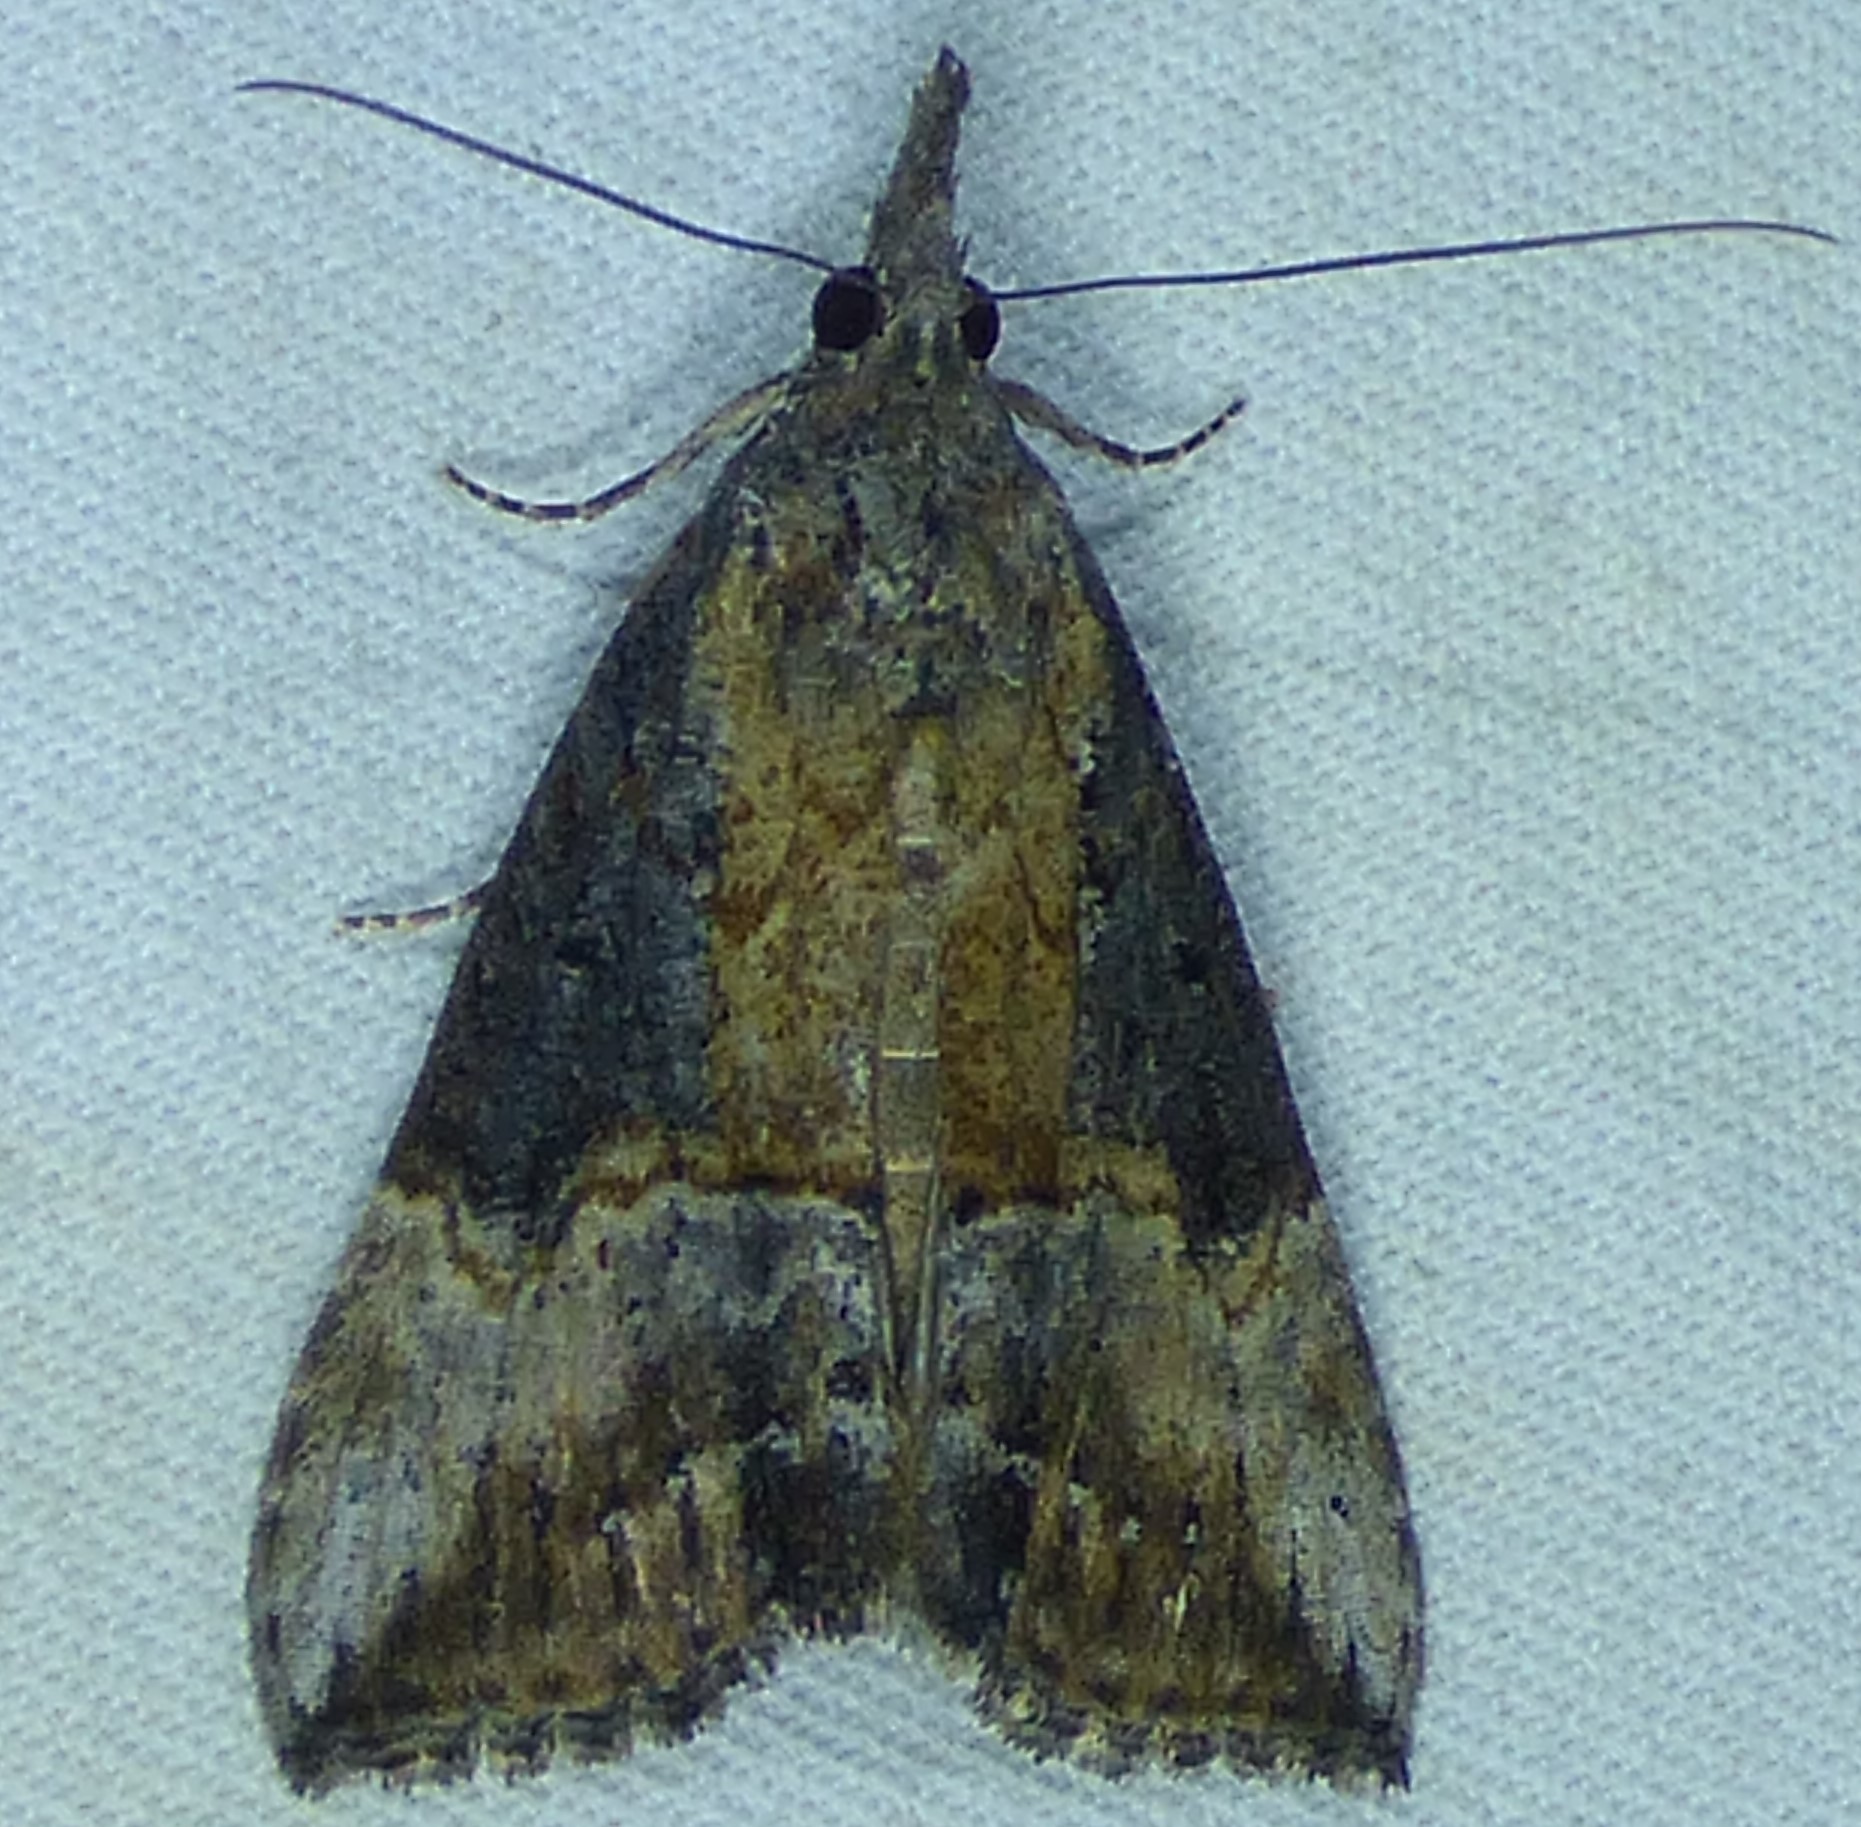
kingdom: Animalia
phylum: Arthropoda
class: Insecta
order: Lepidoptera
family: Erebidae
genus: Hypena
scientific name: Hypena scabra
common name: Green cloverworm
